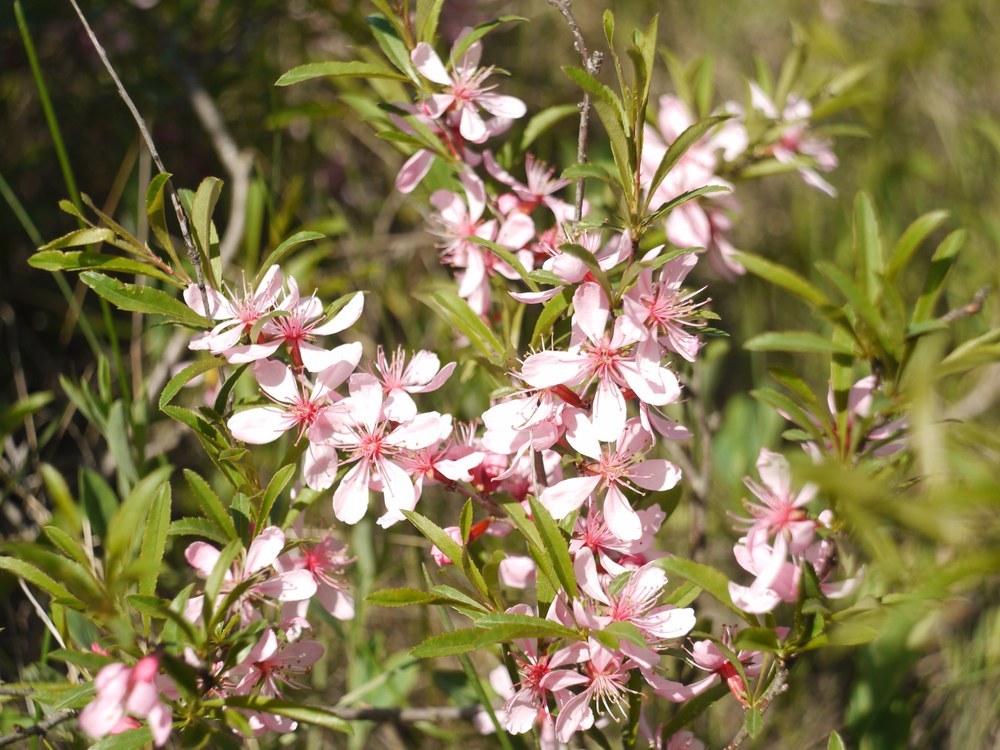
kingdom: Plantae
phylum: Tracheophyta
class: Magnoliopsida
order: Rosales
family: Rosaceae
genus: Prunus
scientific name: Prunus tenella
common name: Dwarf russian almond
